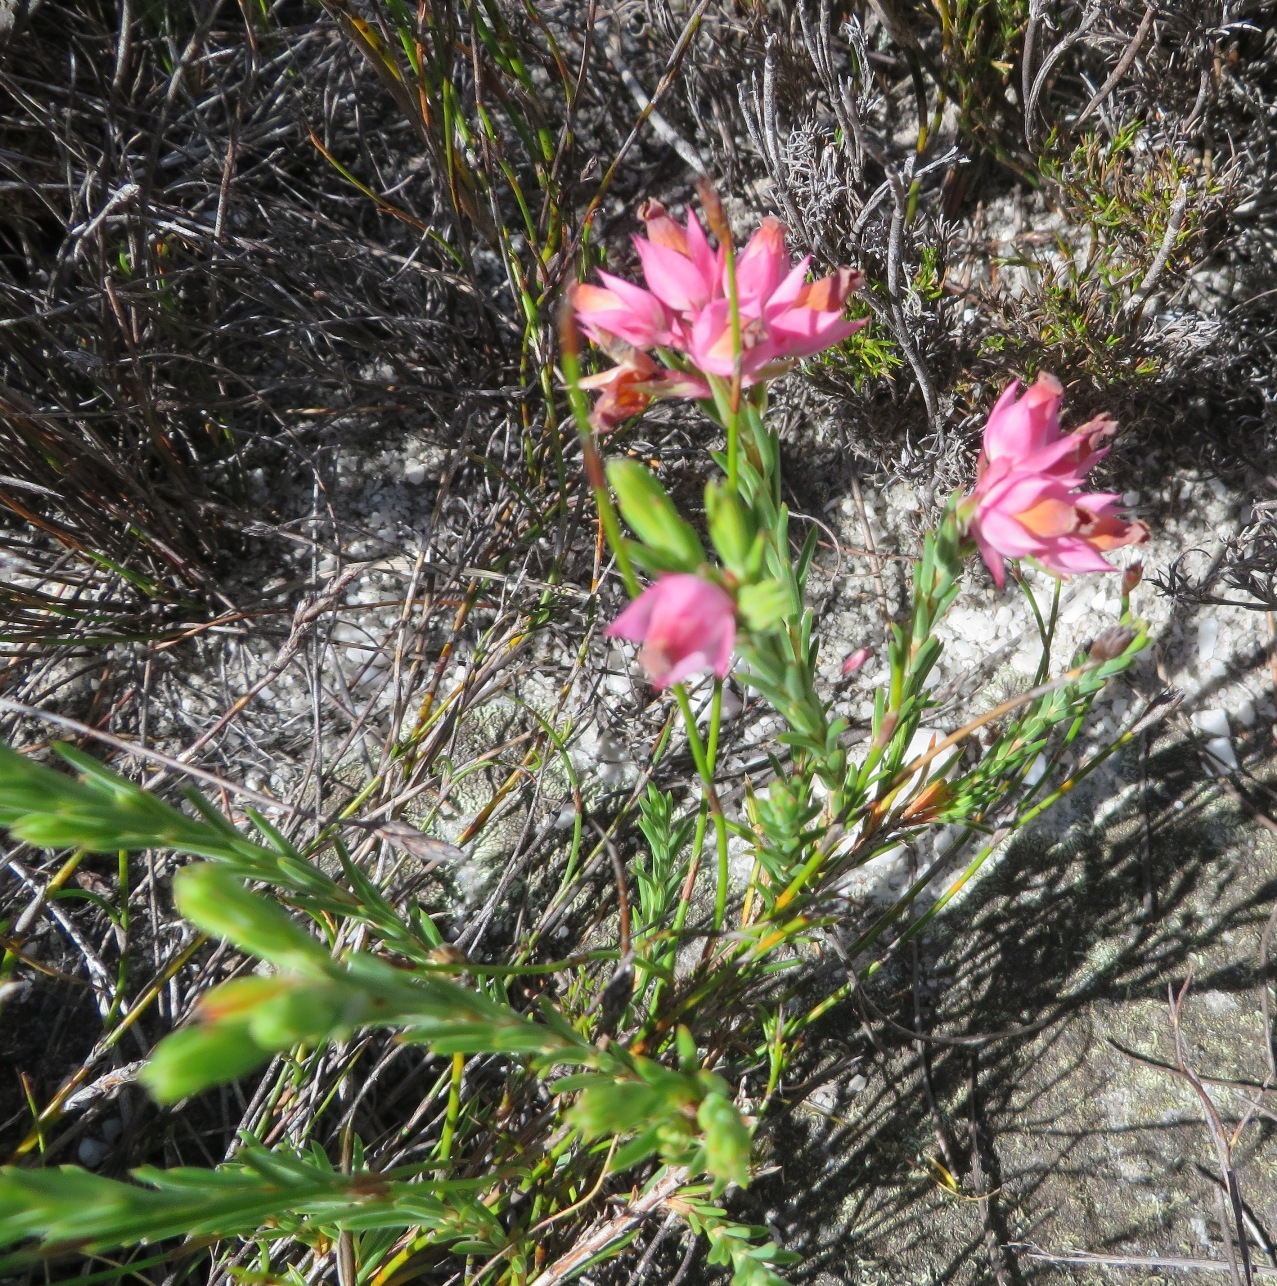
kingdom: Plantae
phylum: Tracheophyta
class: Magnoliopsida
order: Ericales
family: Ericaceae
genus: Erica
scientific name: Erica taxifolia
